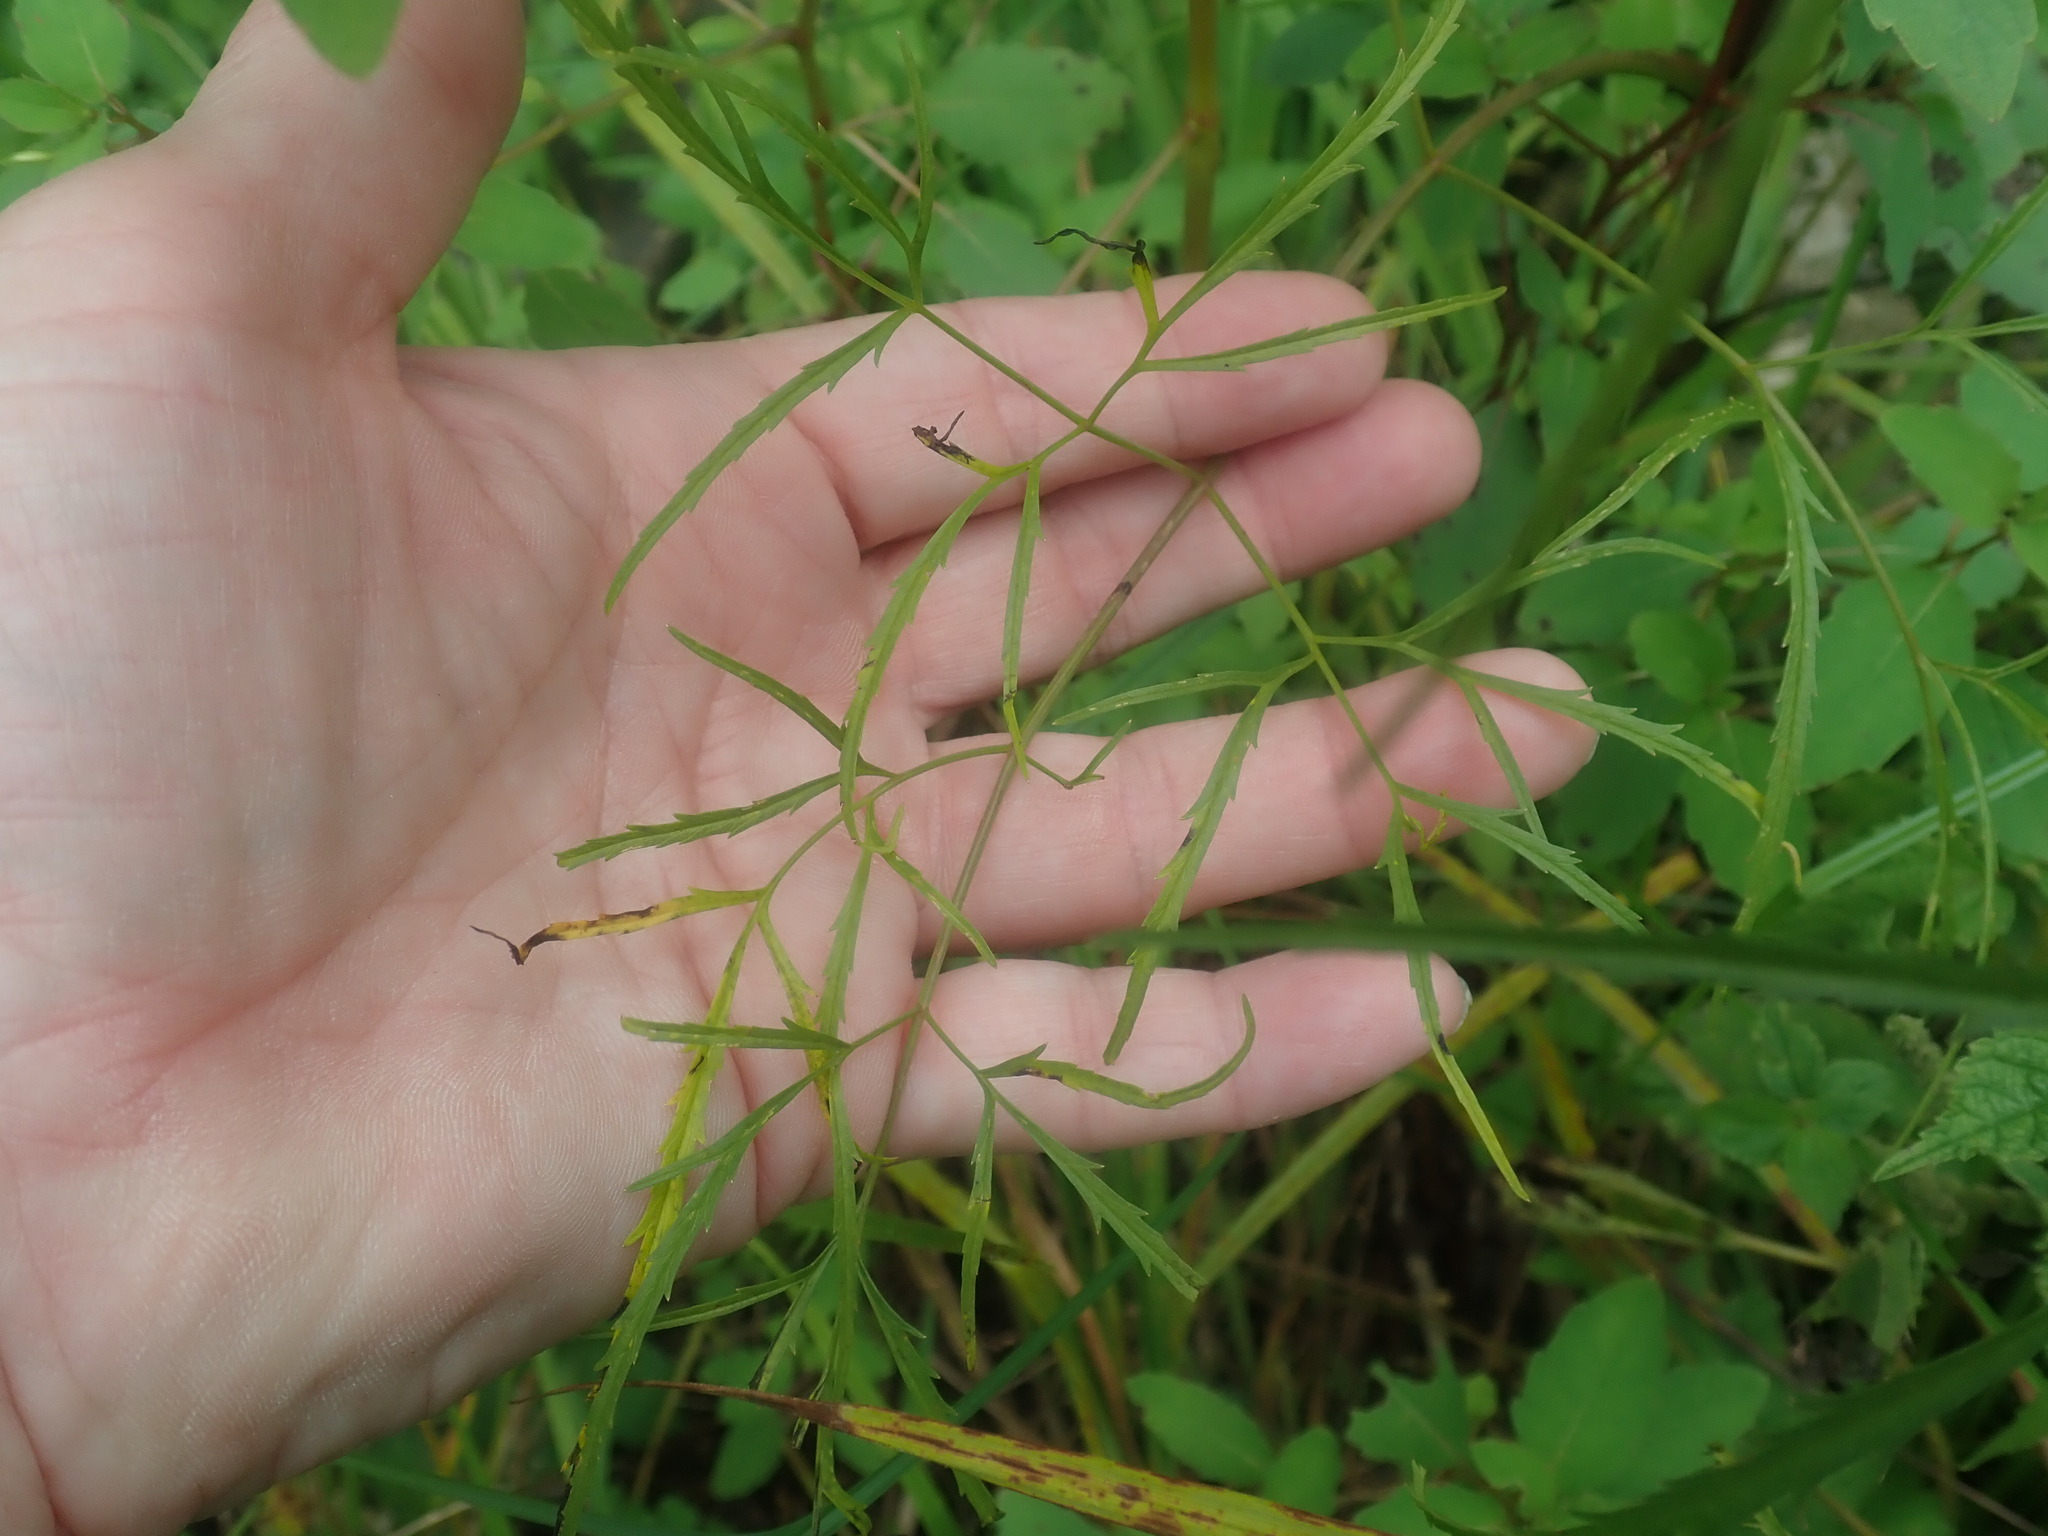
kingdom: Plantae
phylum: Tracheophyta
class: Magnoliopsida
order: Apiales
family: Apiaceae
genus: Cicuta
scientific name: Cicuta bulbifera
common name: Bulb-bearing water-hemlock
